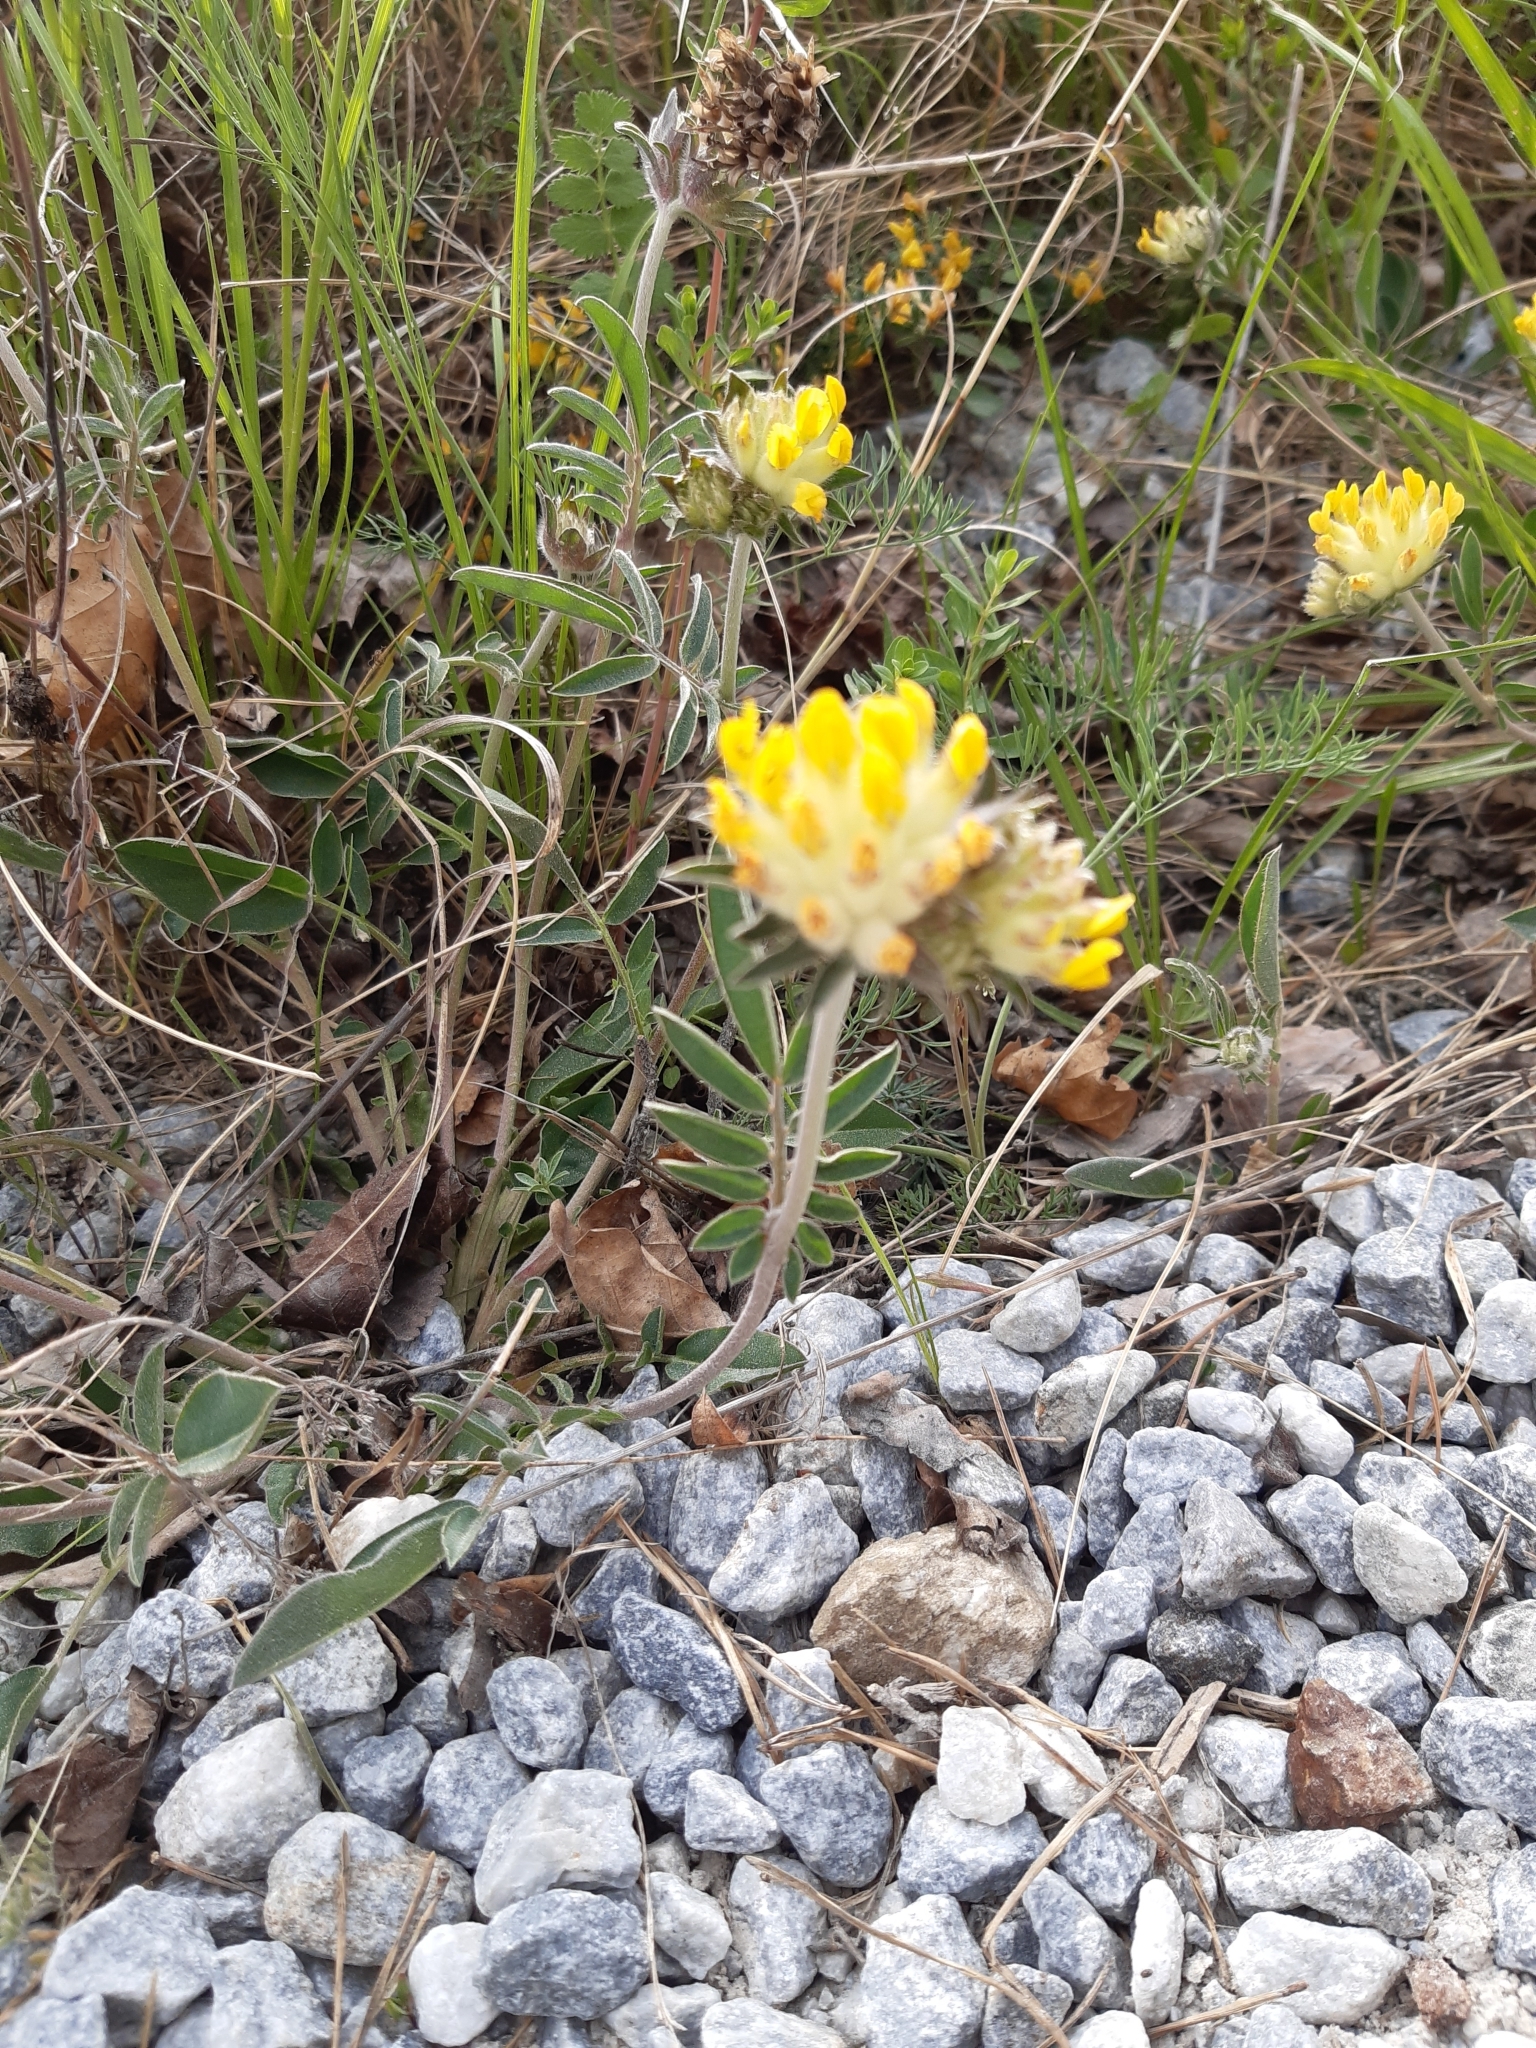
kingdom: Plantae
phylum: Tracheophyta
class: Magnoliopsida
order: Fabales
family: Fabaceae
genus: Anthyllis
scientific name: Anthyllis vulneraria
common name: Kidney vetch
